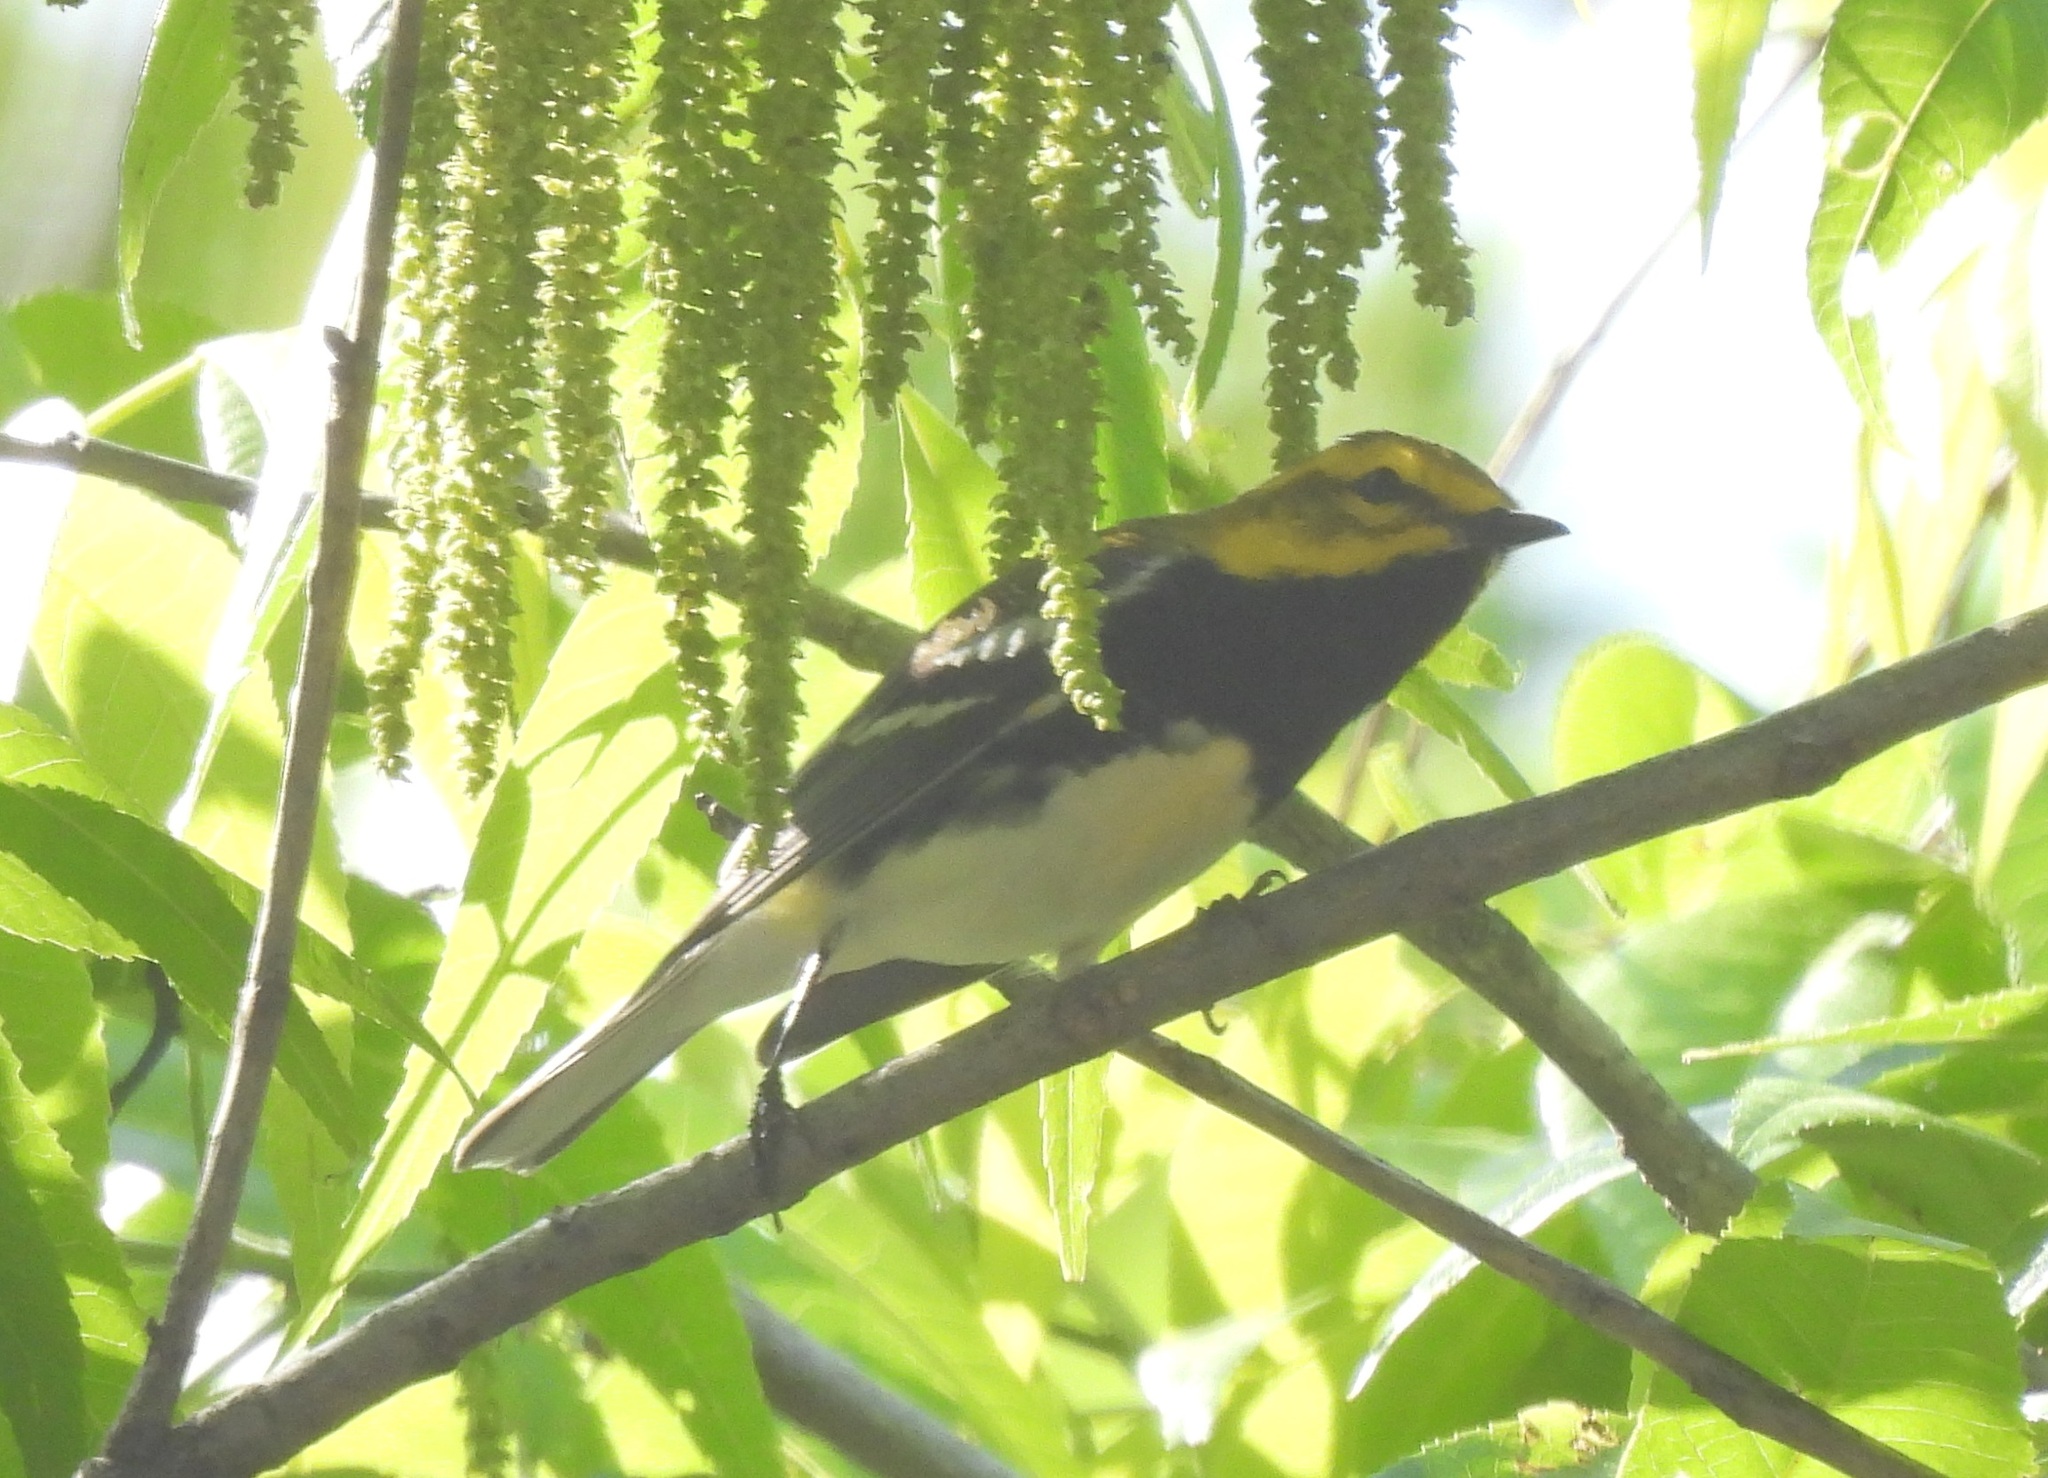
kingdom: Animalia
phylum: Chordata
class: Aves
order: Passeriformes
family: Parulidae
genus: Setophaga
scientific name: Setophaga virens
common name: Black-throated green warbler
